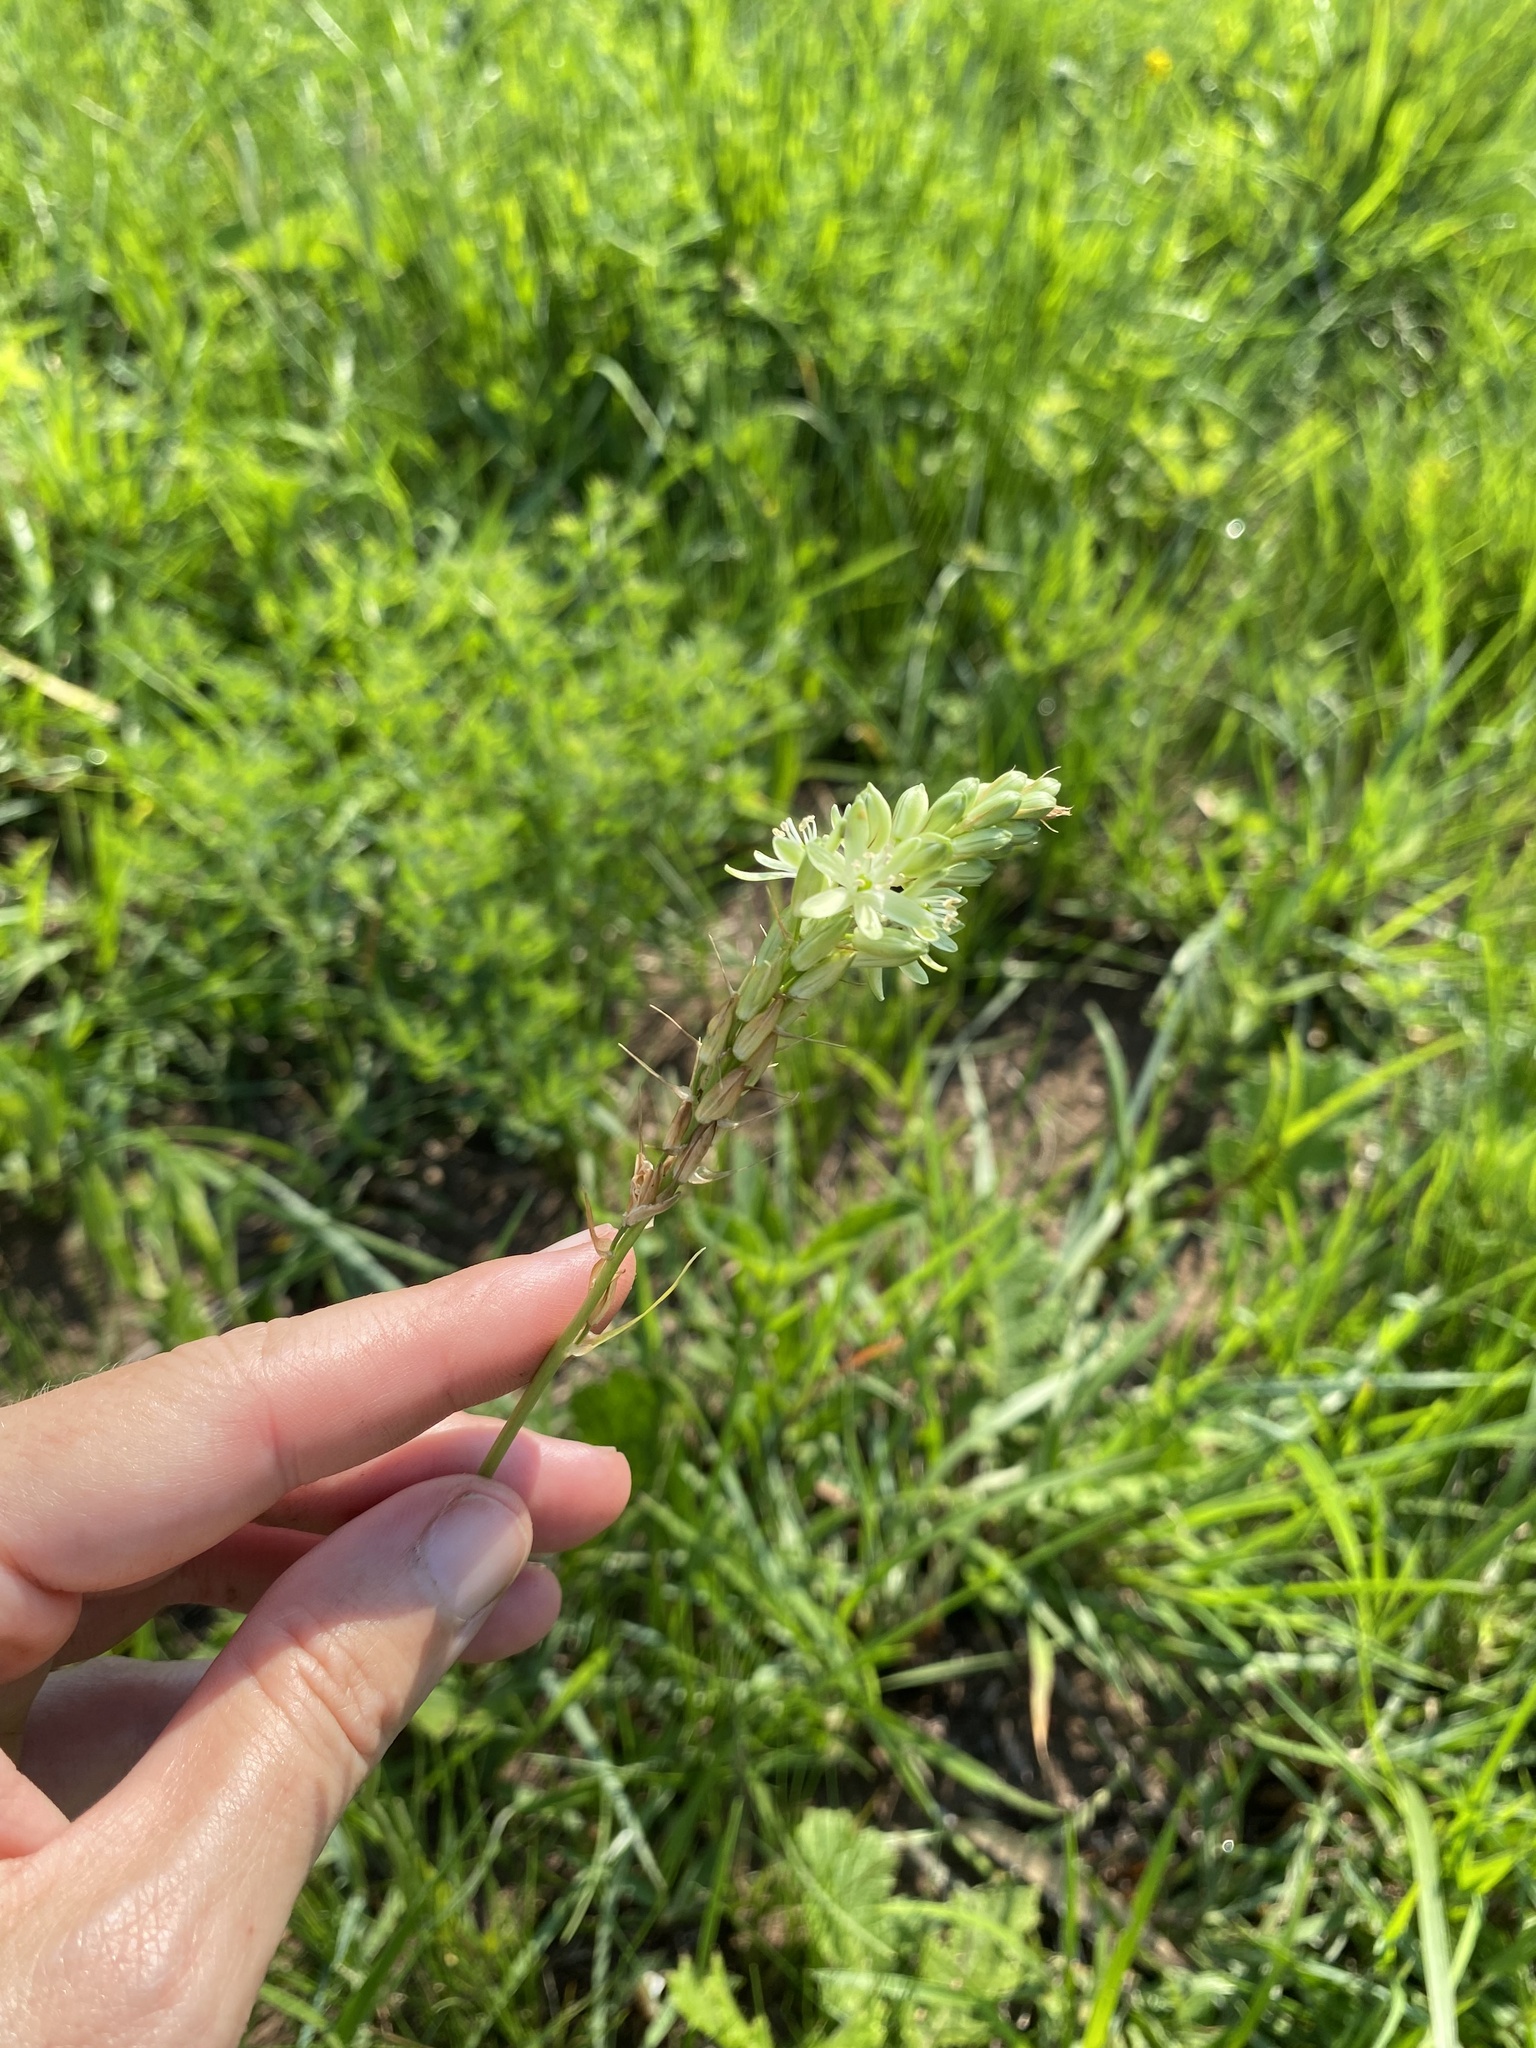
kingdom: Plantae
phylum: Tracheophyta
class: Liliopsida
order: Asparagales
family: Asparagaceae
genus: Albuca
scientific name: Albuca virens
